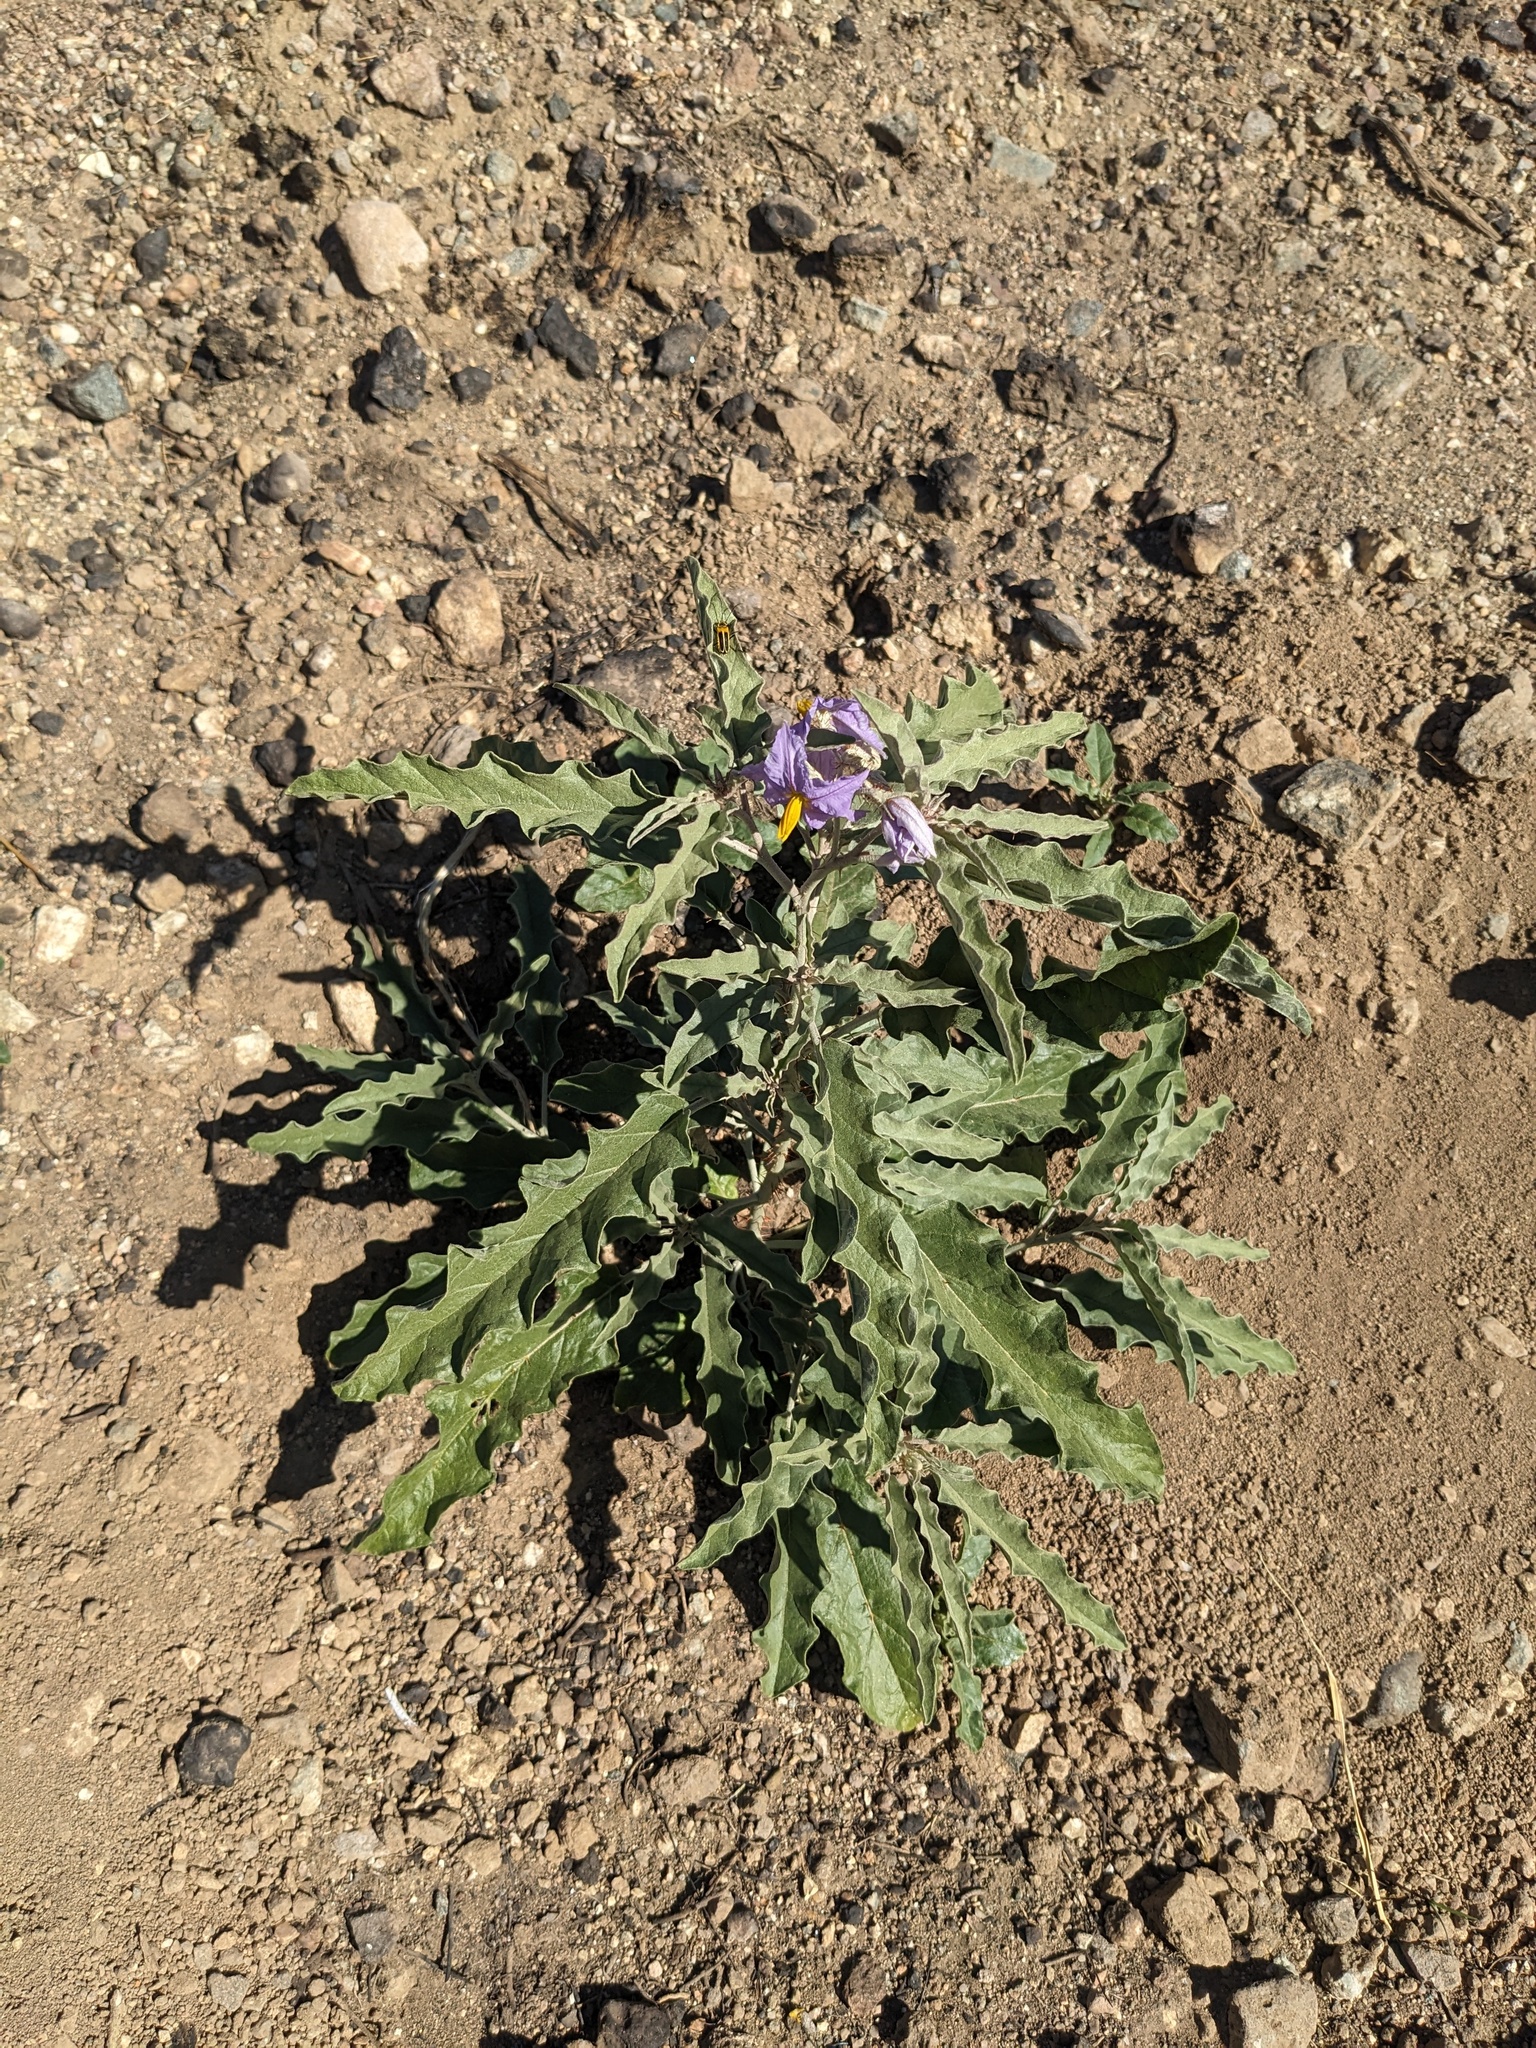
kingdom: Plantae
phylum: Tracheophyta
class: Magnoliopsida
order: Solanales
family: Solanaceae
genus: Solanum
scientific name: Solanum elaeagnifolium
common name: Silverleaf nightshade
